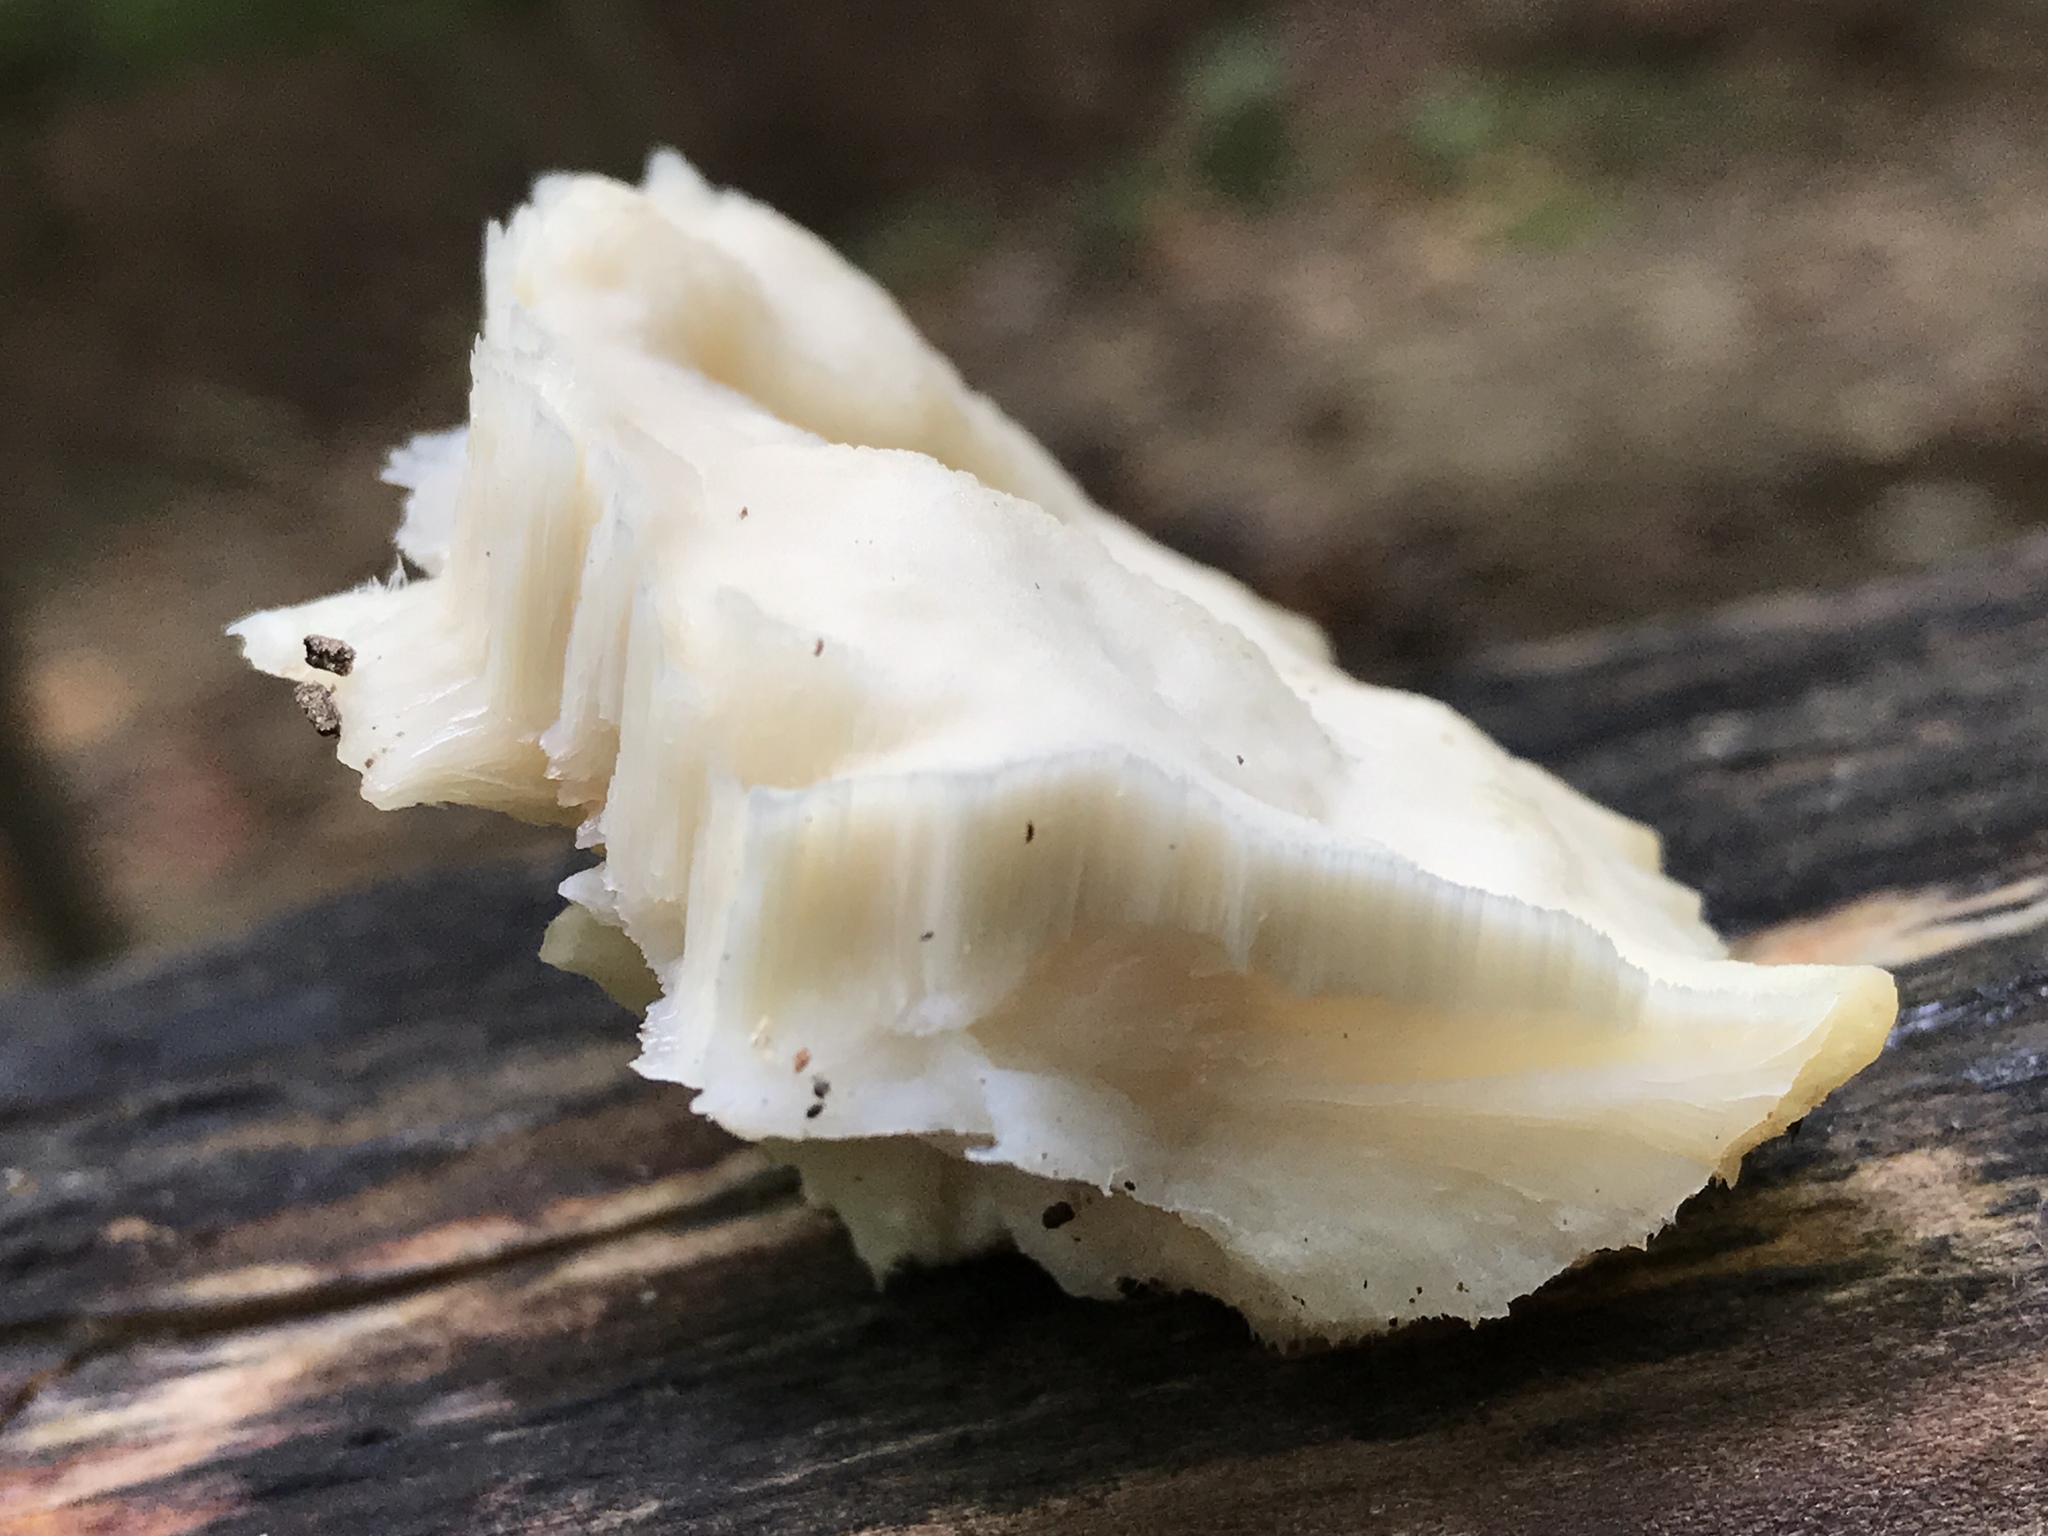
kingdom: Fungi
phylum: Basidiomycota
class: Agaricomycetes
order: Polyporales
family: Incrustoporiaceae
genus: Tyromyces
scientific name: Tyromyces chioneus
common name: White cheese polypore
